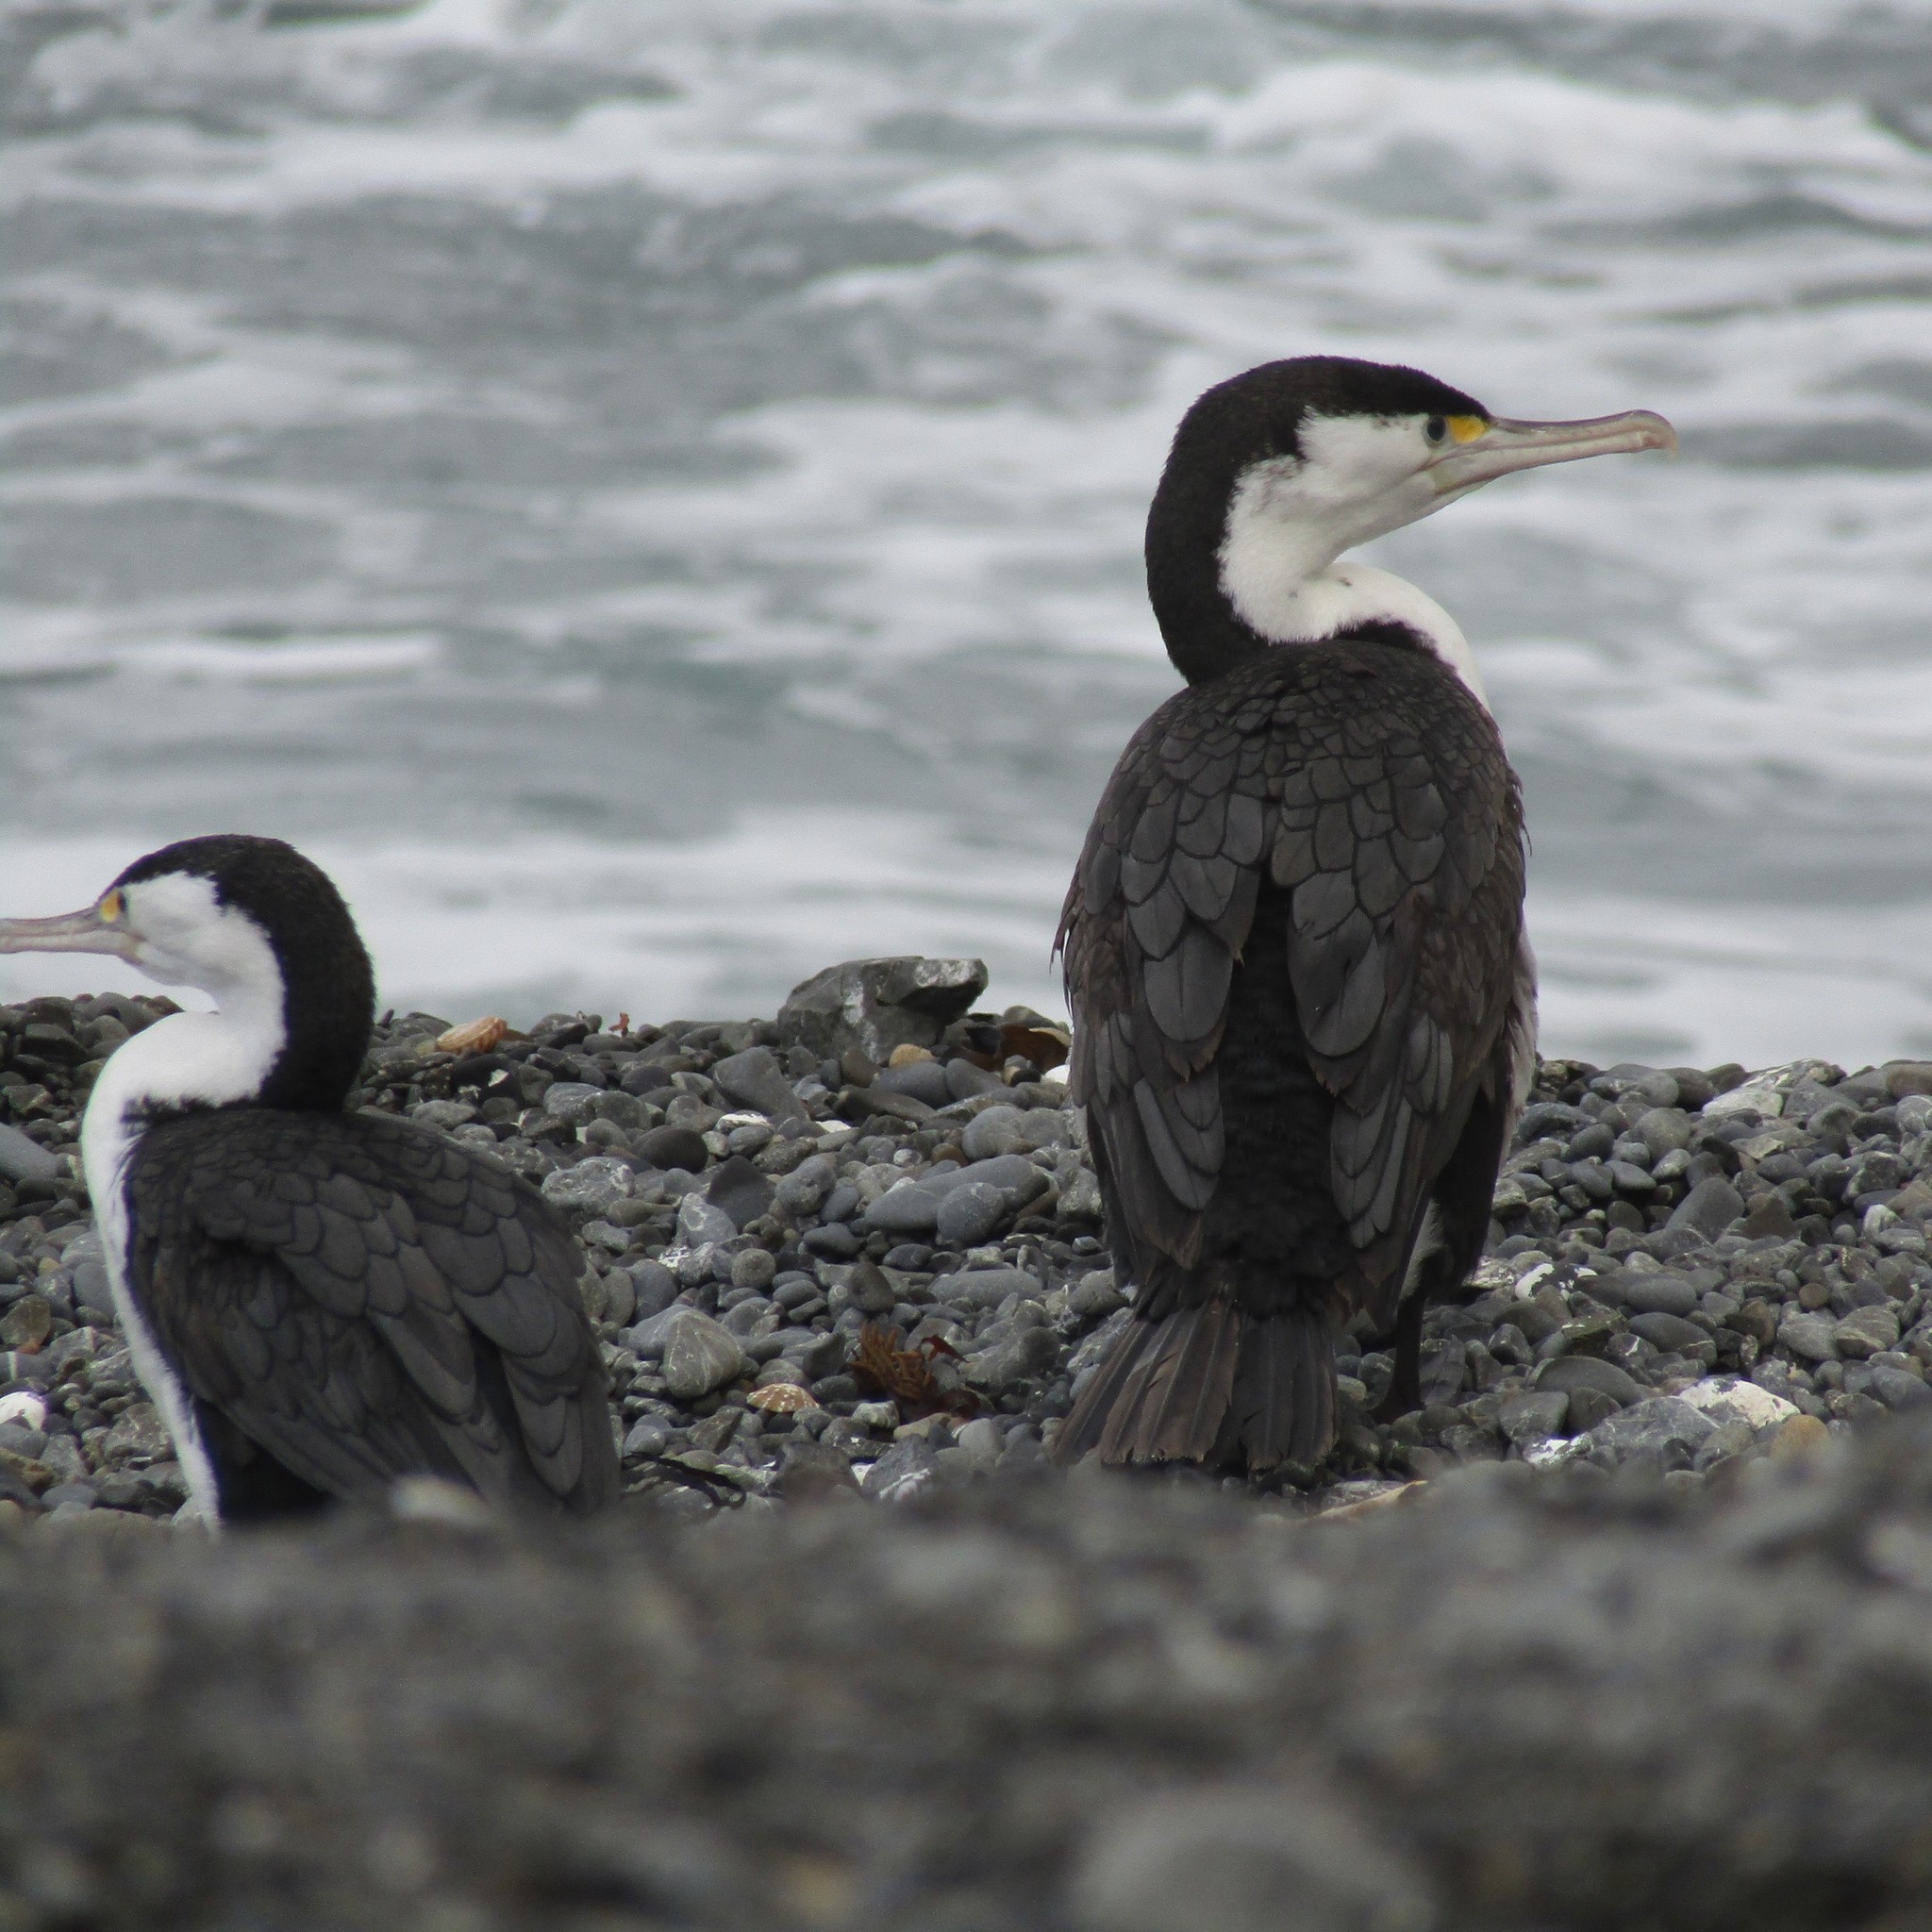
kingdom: Animalia
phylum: Chordata
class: Aves
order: Suliformes
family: Phalacrocoracidae
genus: Phalacrocorax
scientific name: Phalacrocorax varius
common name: Pied cormorant
